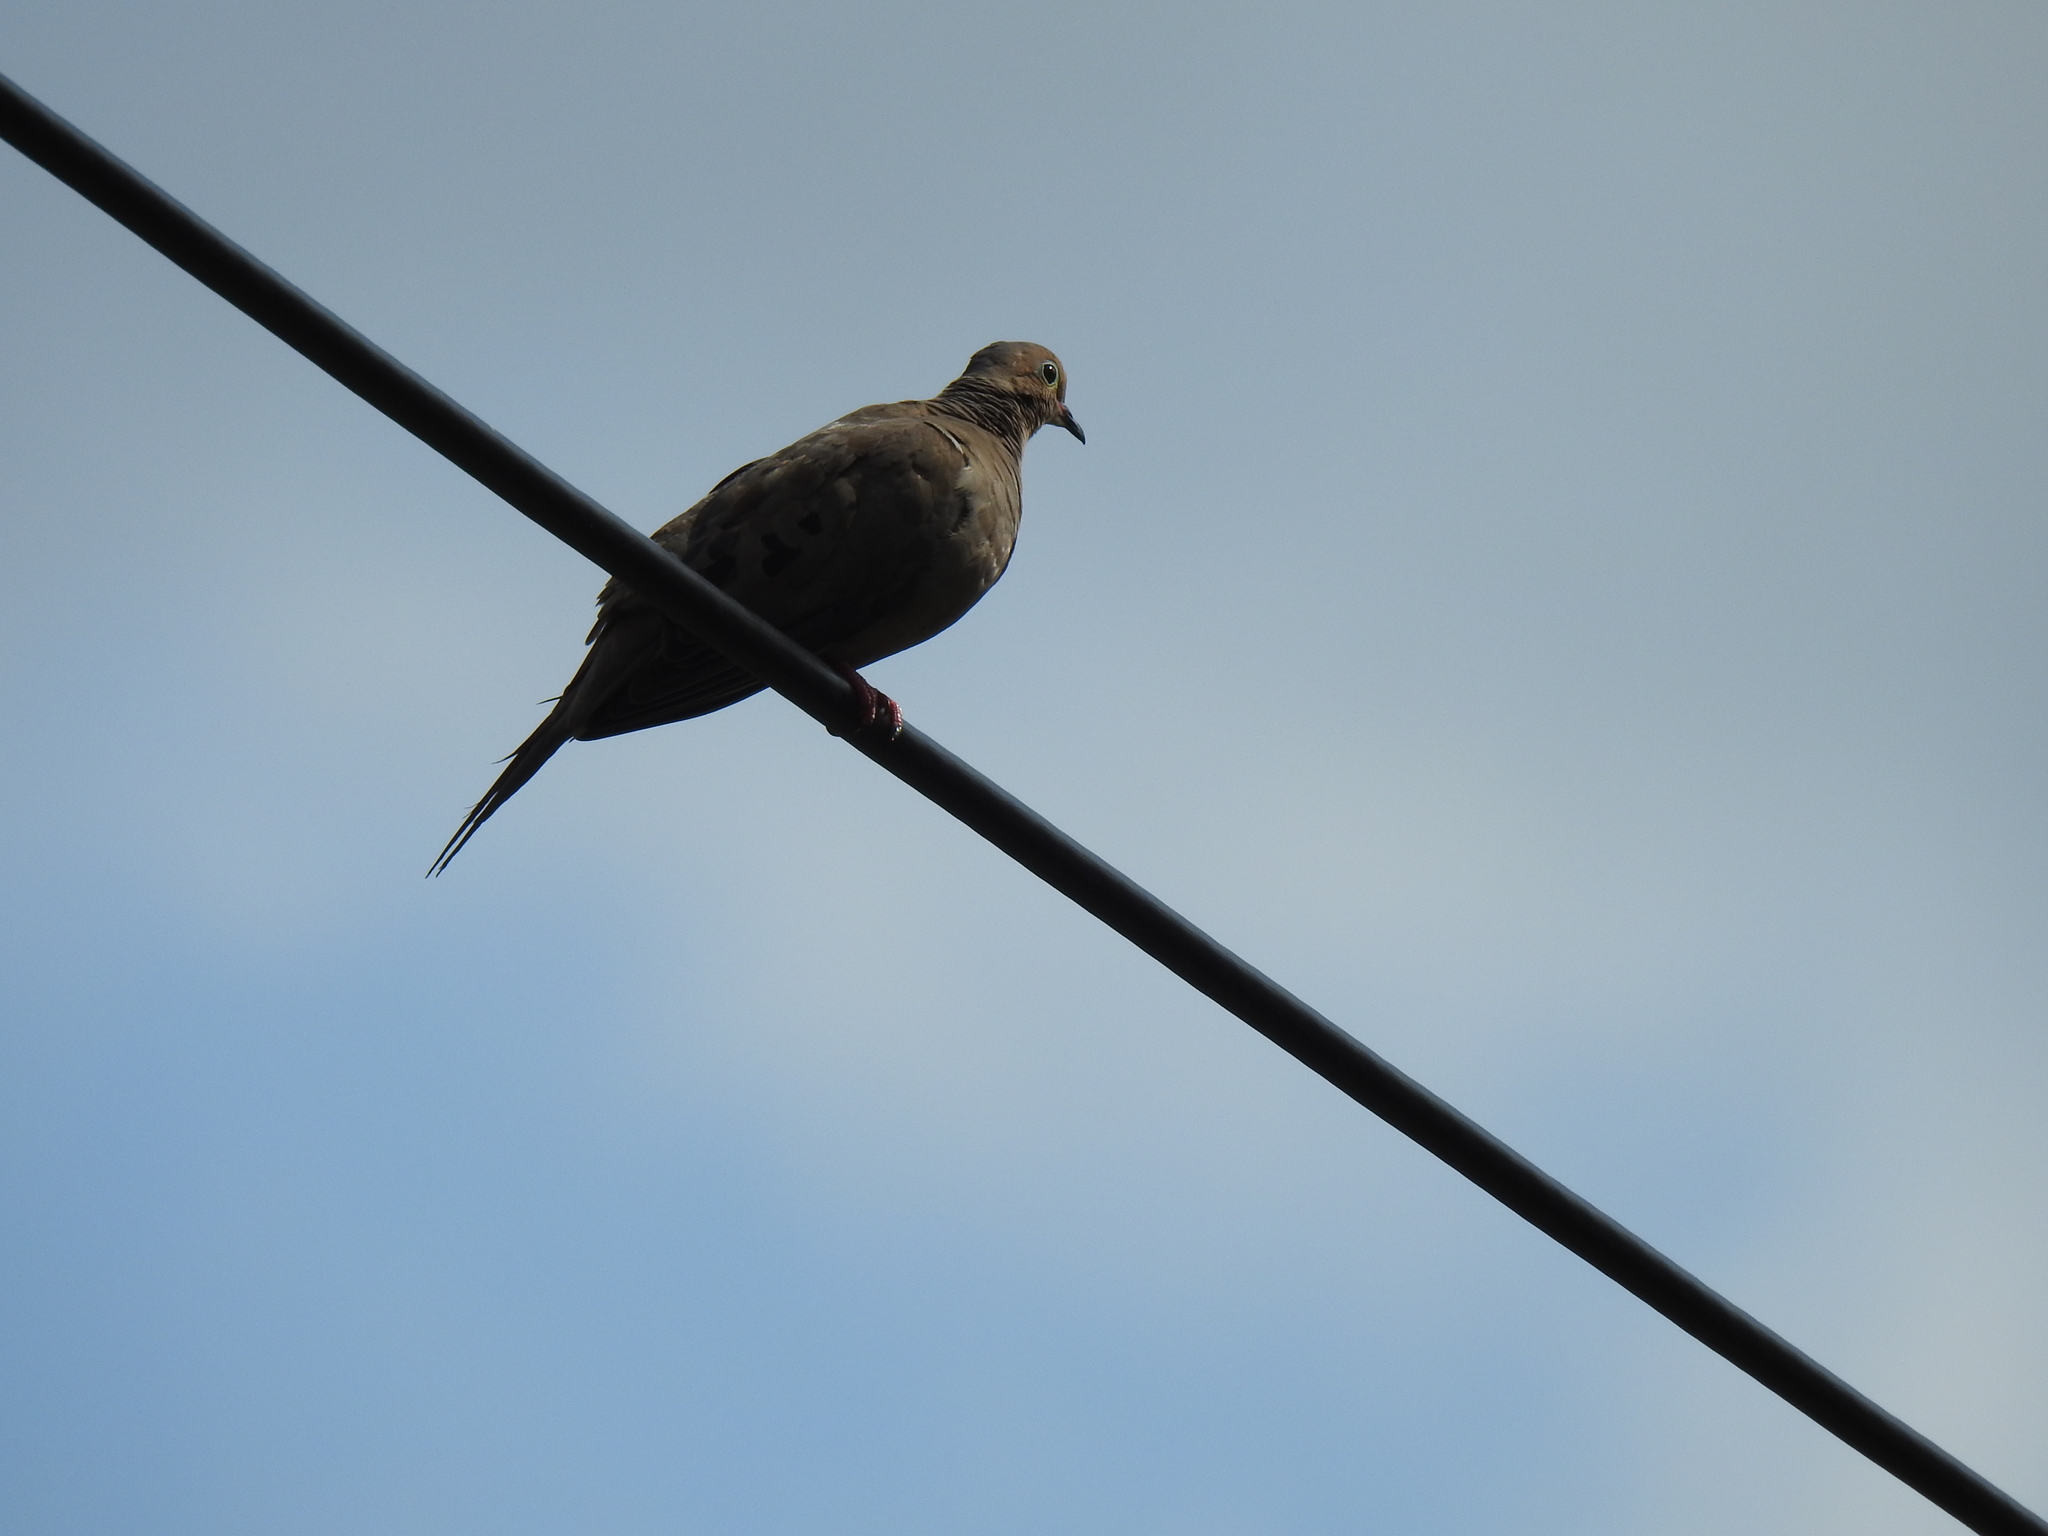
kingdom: Animalia
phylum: Chordata
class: Aves
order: Columbiformes
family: Columbidae
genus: Zenaida
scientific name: Zenaida macroura
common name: Mourning dove
